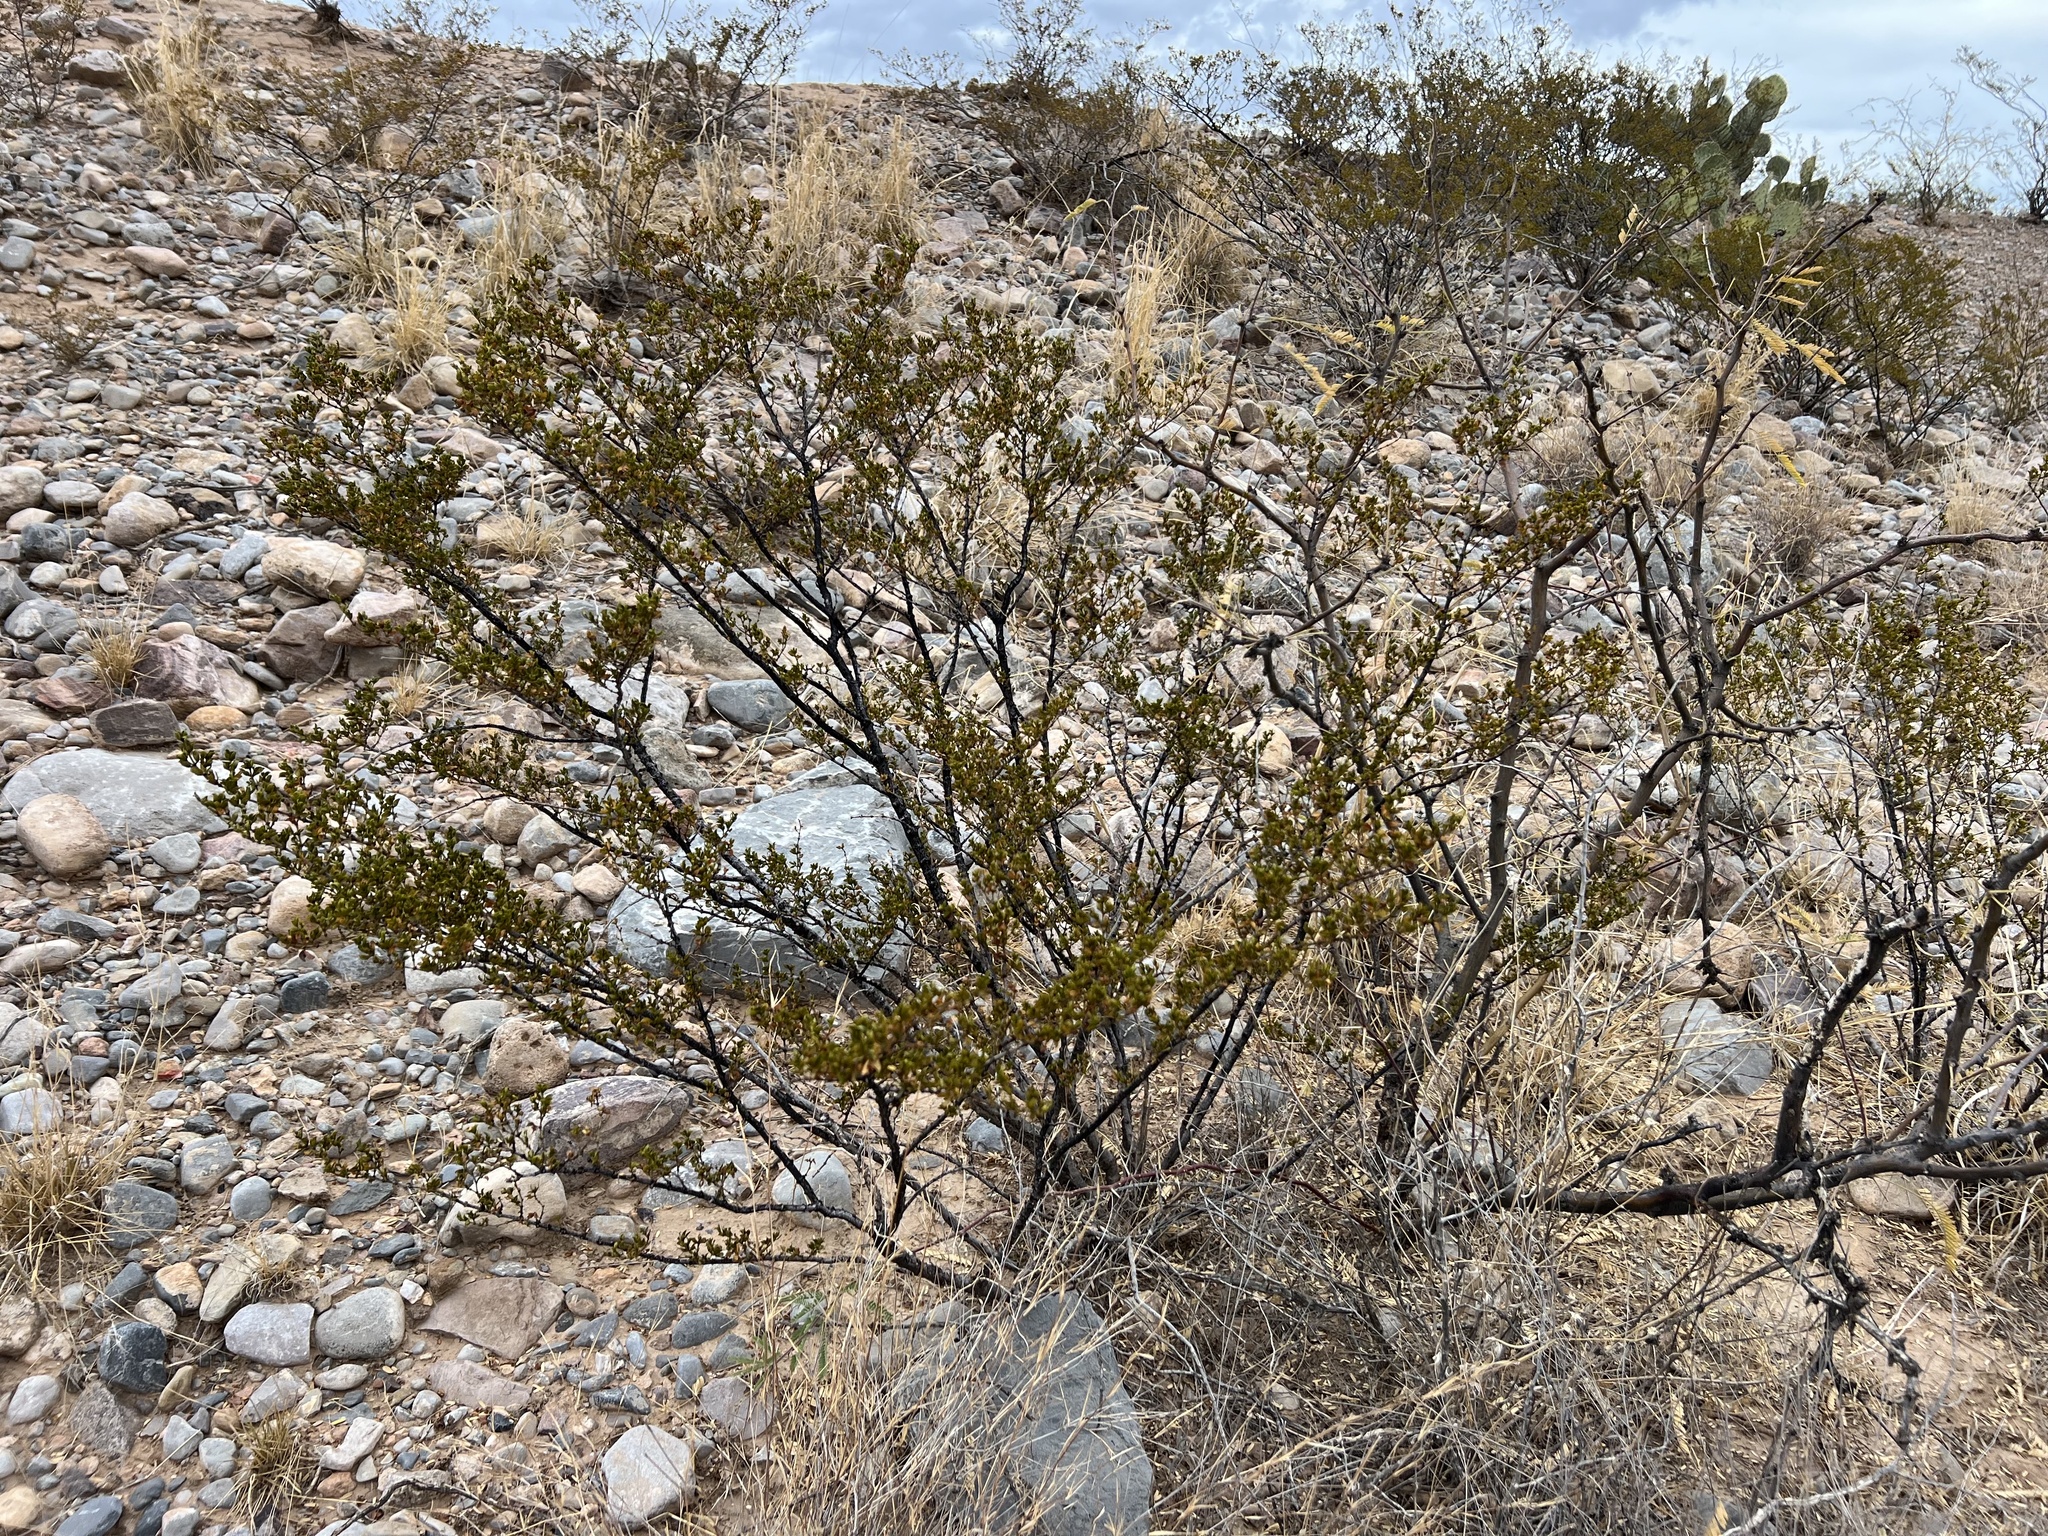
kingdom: Plantae
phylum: Tracheophyta
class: Magnoliopsida
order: Zygophyllales
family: Zygophyllaceae
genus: Larrea
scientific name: Larrea tridentata
